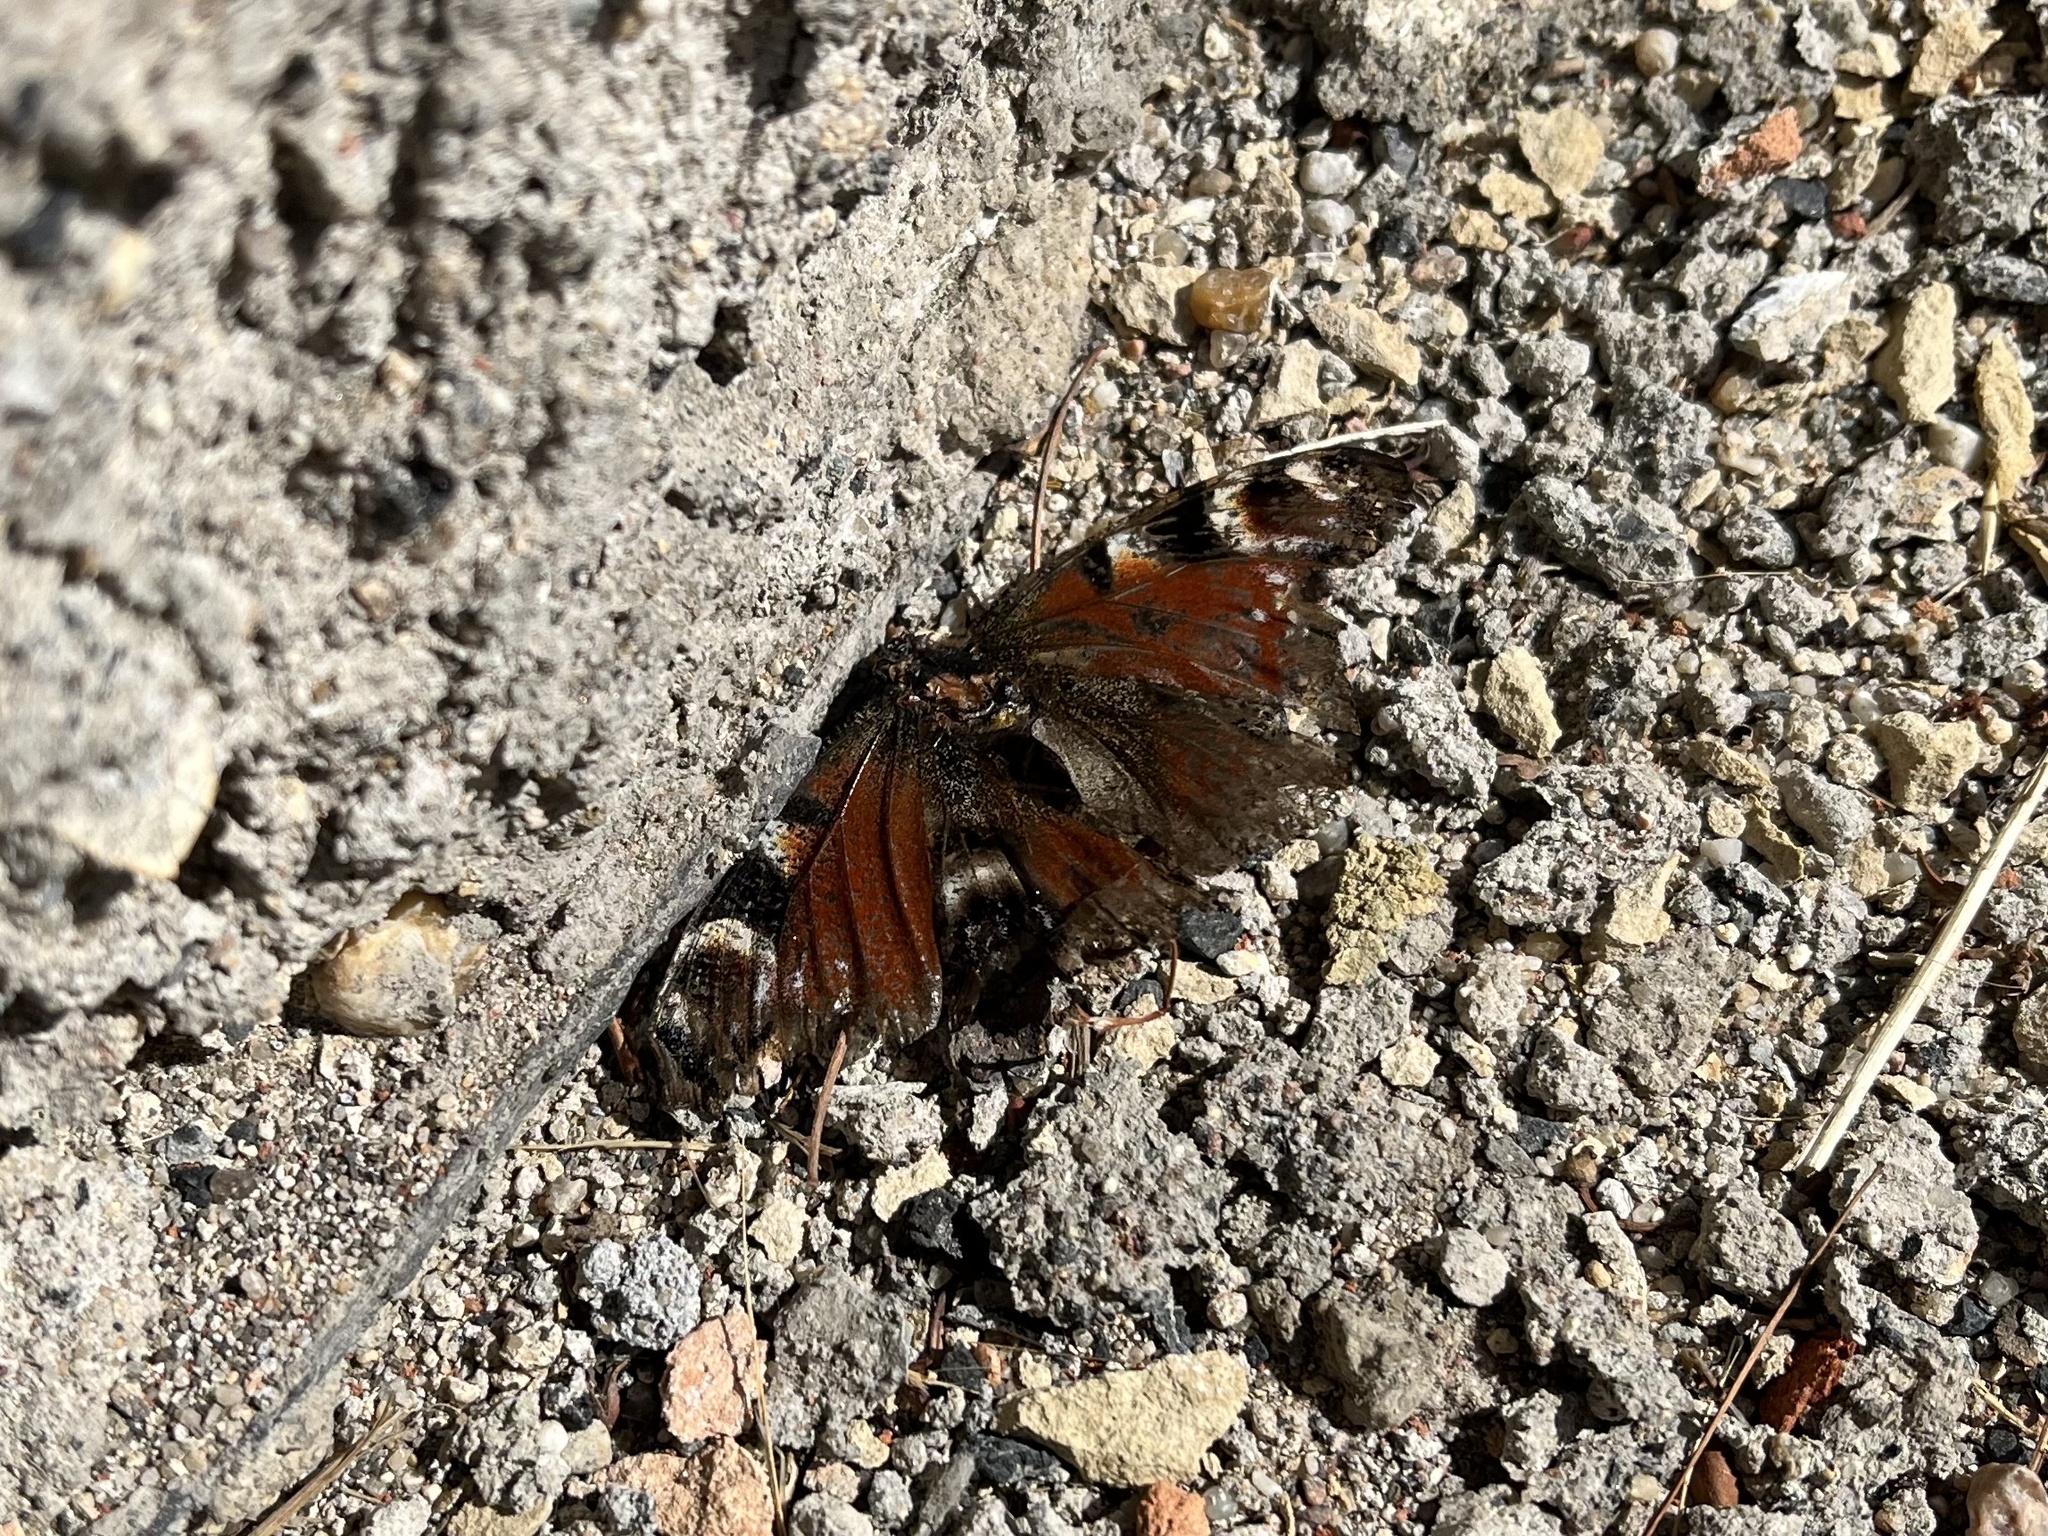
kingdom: Animalia
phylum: Arthropoda
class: Insecta
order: Lepidoptera
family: Nymphalidae
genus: Aglais
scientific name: Aglais io
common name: Peacock
